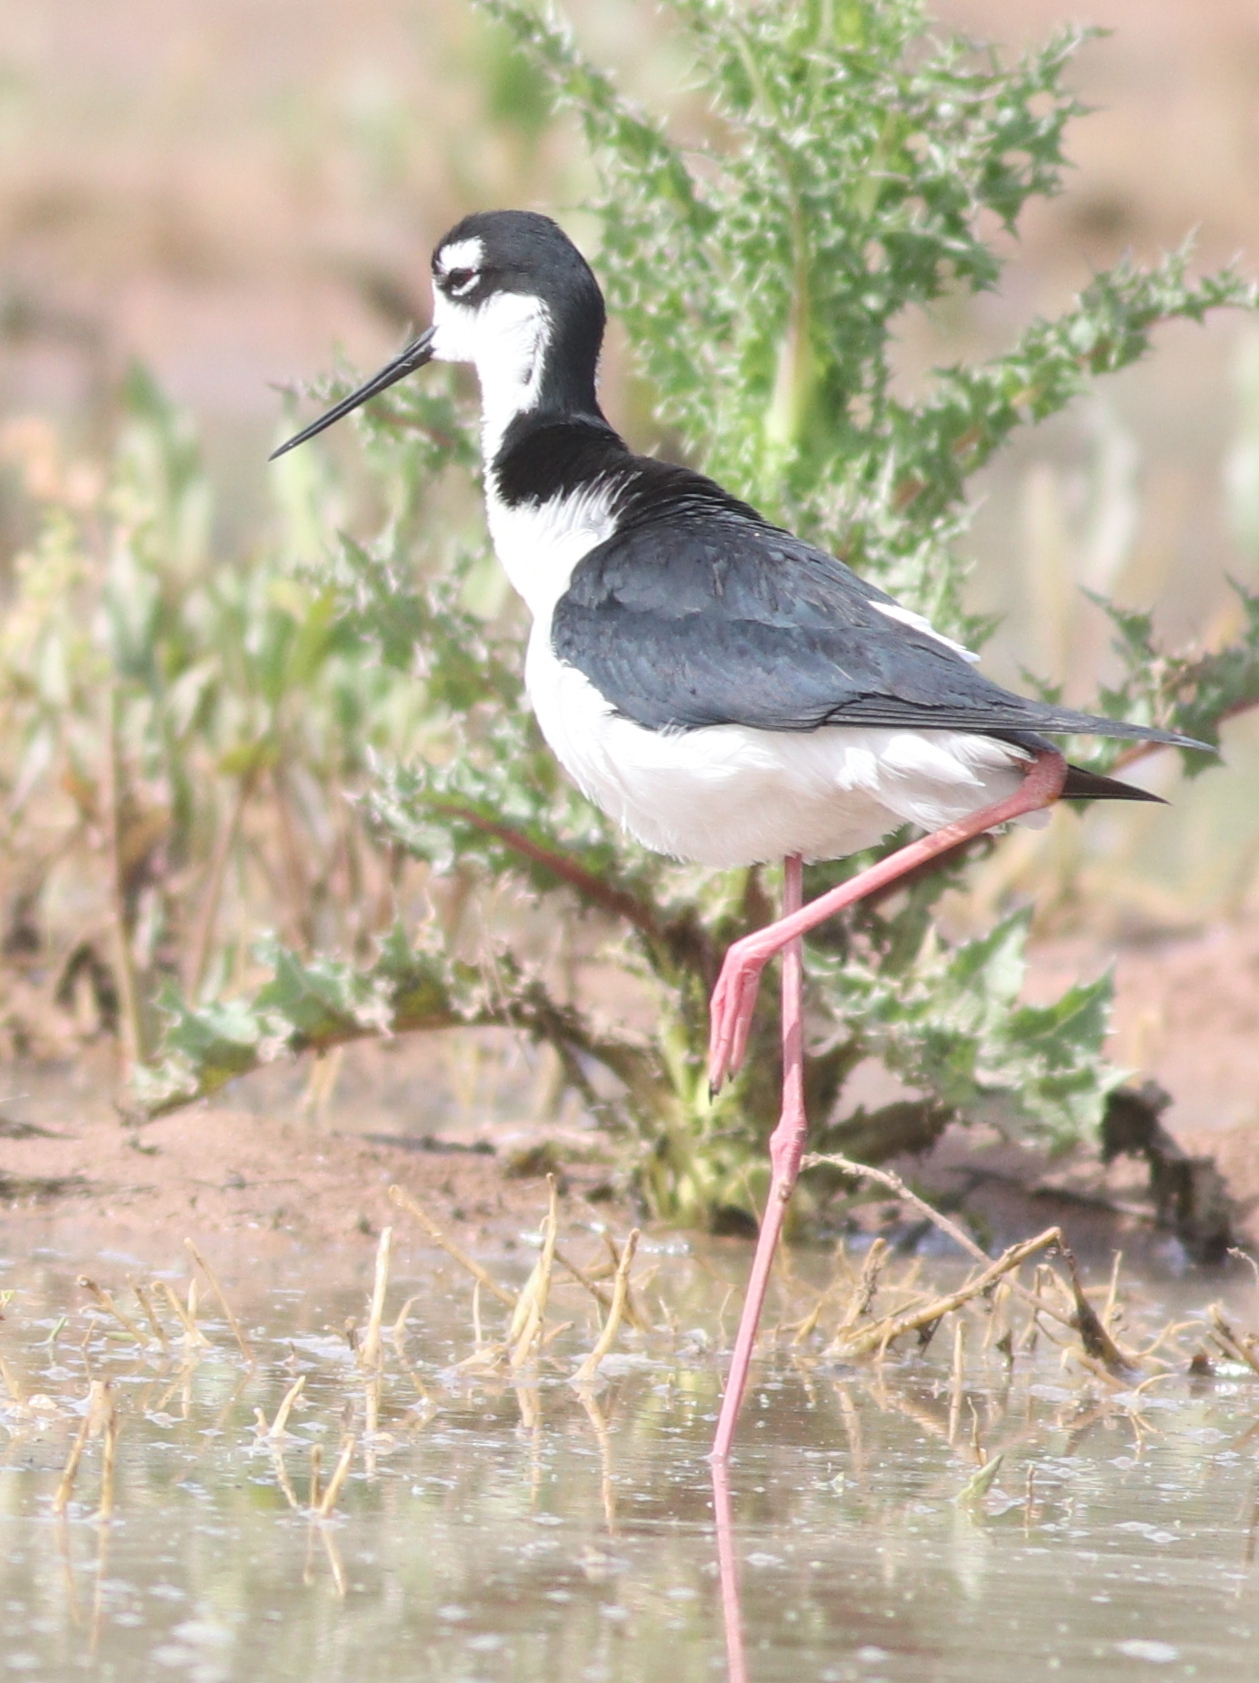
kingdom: Animalia
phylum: Chordata
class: Aves
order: Charadriiformes
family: Recurvirostridae
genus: Himantopus
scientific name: Himantopus mexicanus
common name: Black-necked stilt
